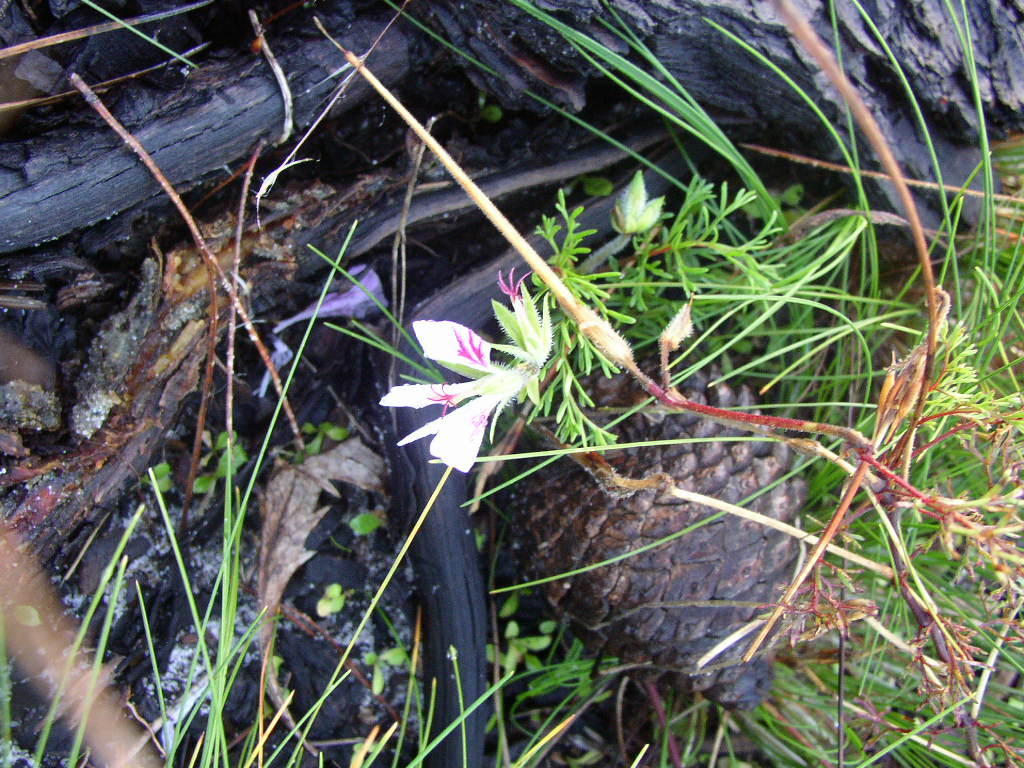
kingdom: Plantae
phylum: Tracheophyta
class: Magnoliopsida
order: Geraniales
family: Geraniaceae
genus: Pelargonium
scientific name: Pelargonium myrrhifolium
